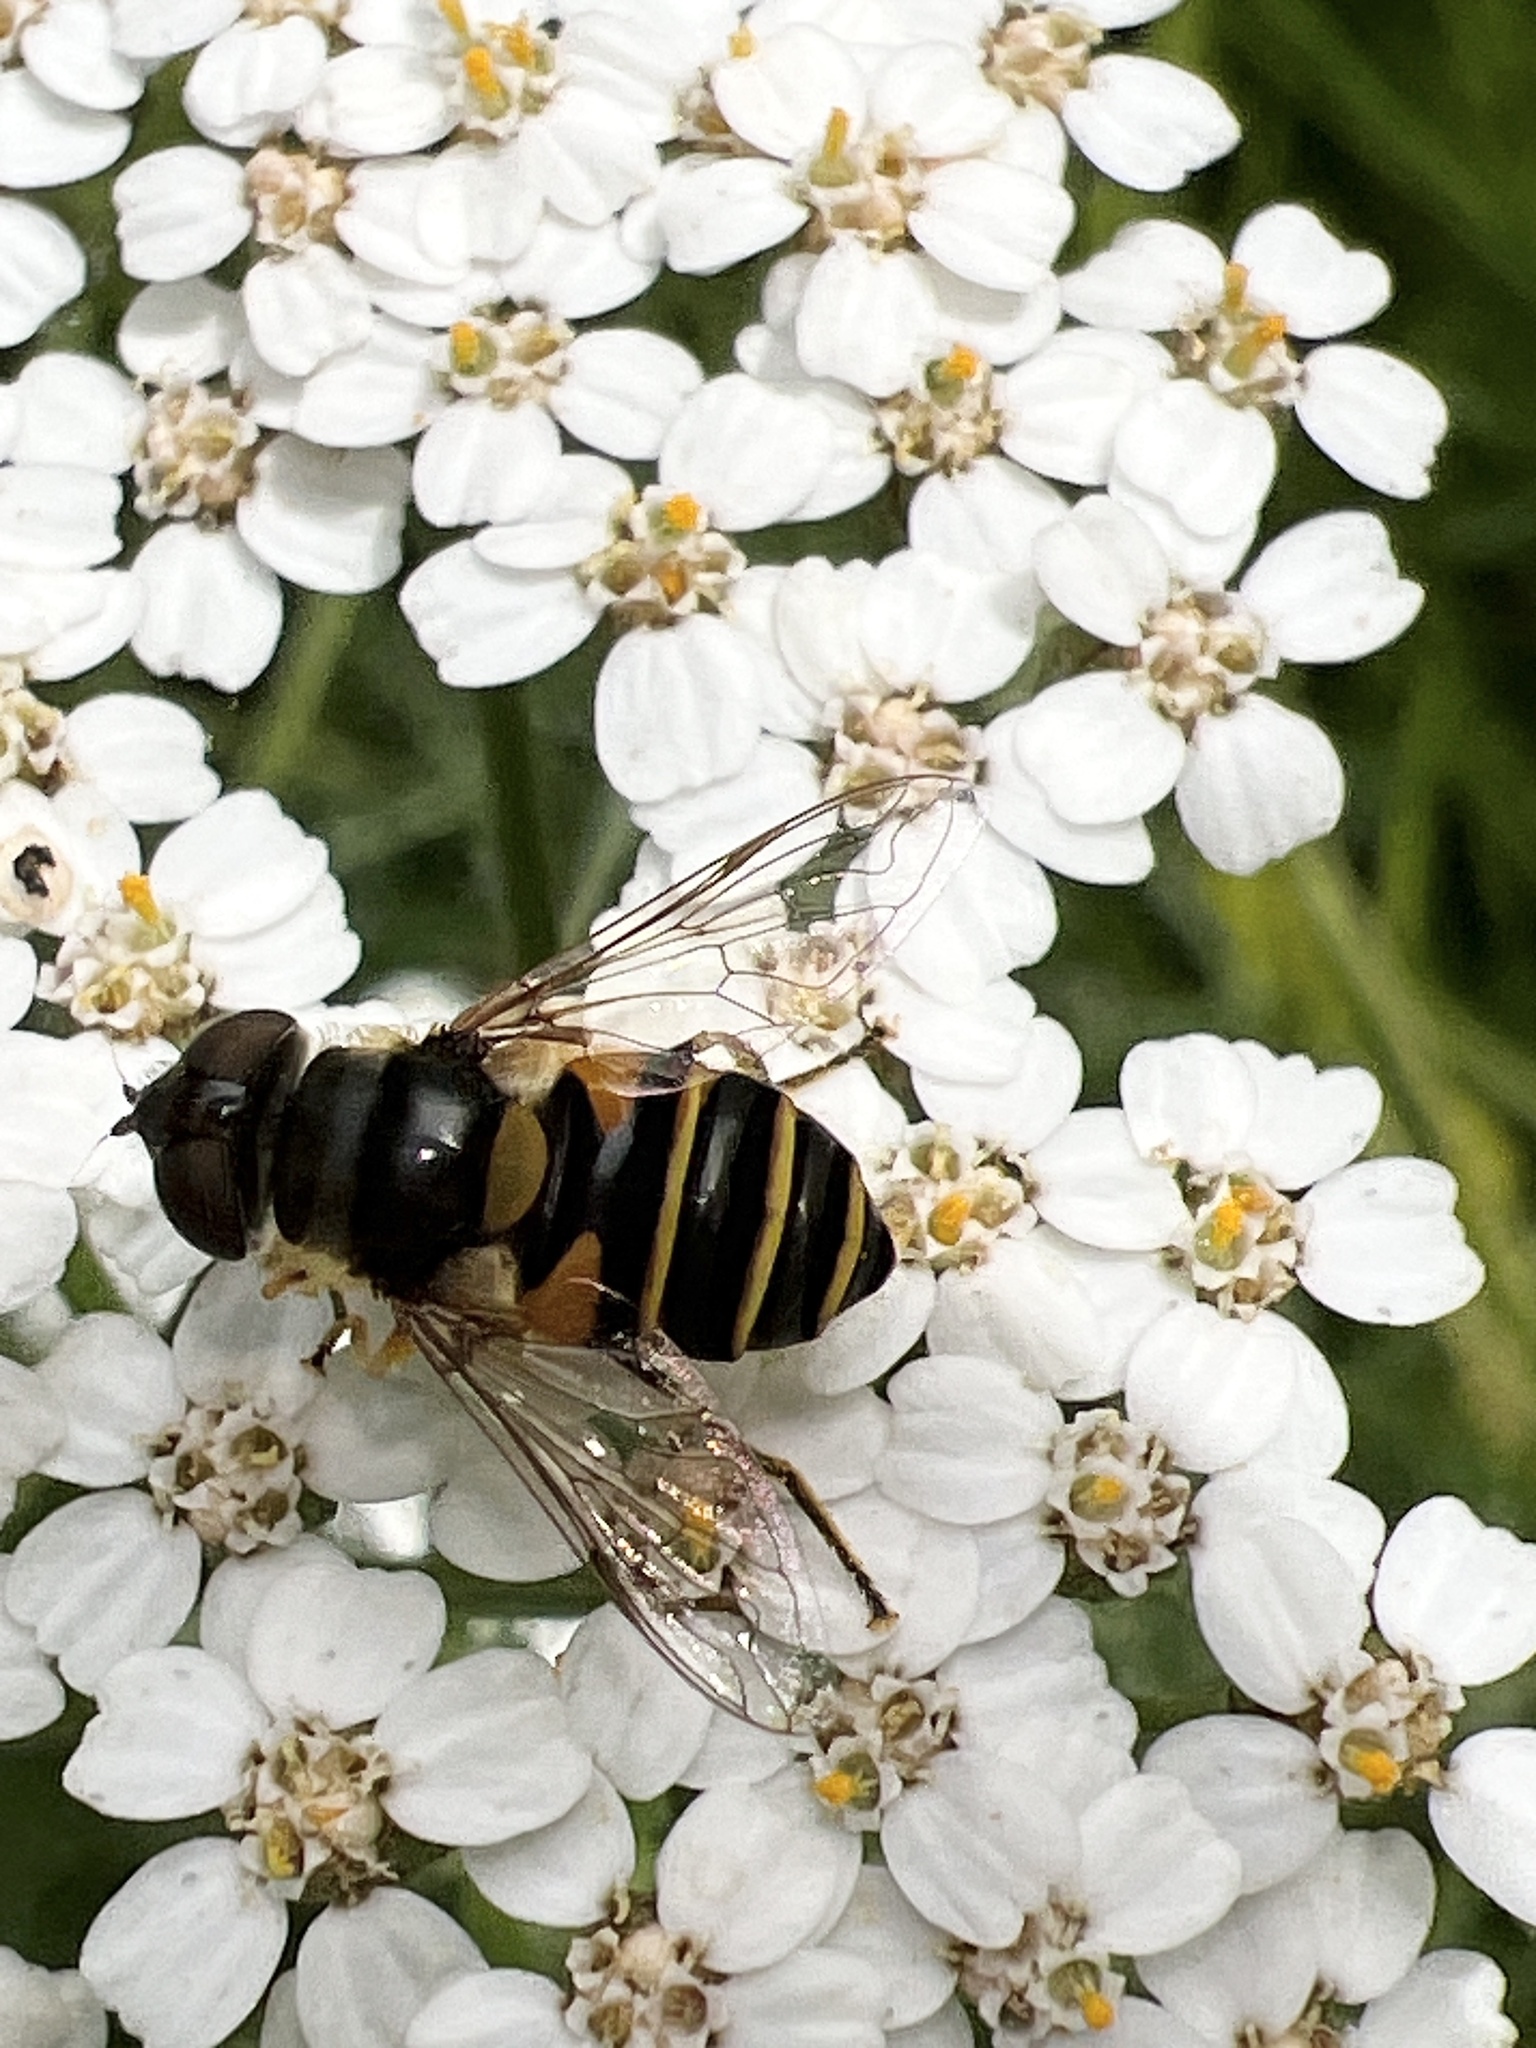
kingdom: Animalia
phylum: Arthropoda
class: Insecta
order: Diptera
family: Syrphidae
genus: Eristalis
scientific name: Eristalis transversa
